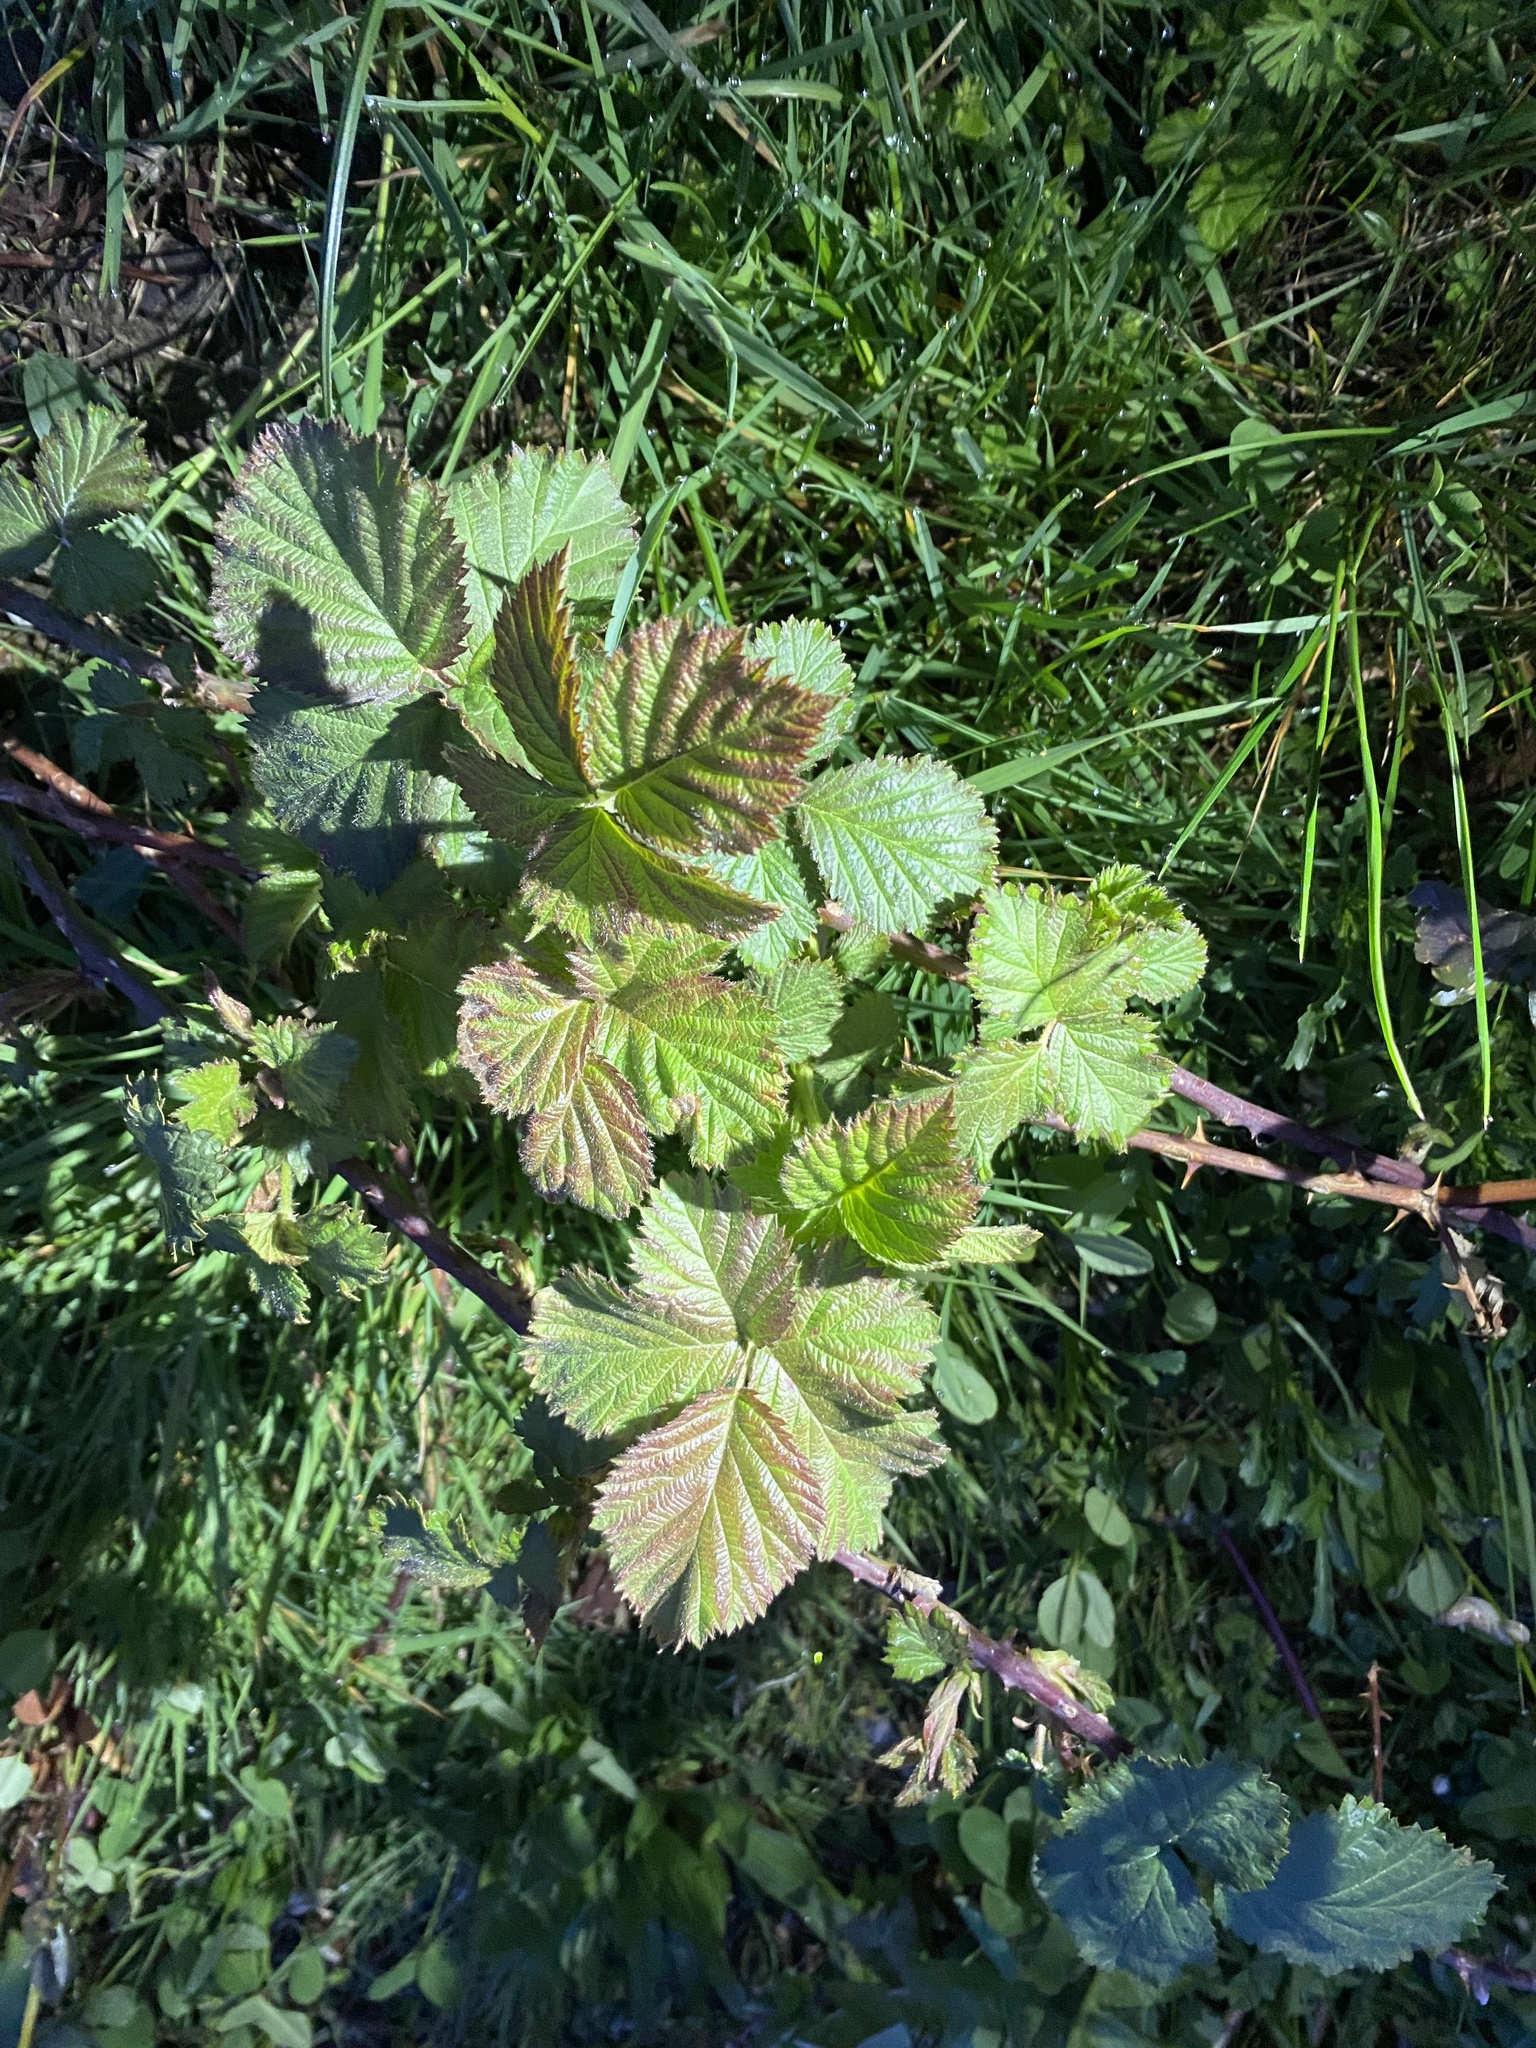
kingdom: Plantae
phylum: Tracheophyta
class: Magnoliopsida
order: Rosales
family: Rosaceae
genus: Rubus
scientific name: Rubus armeniacus
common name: Himalayan blackberry
